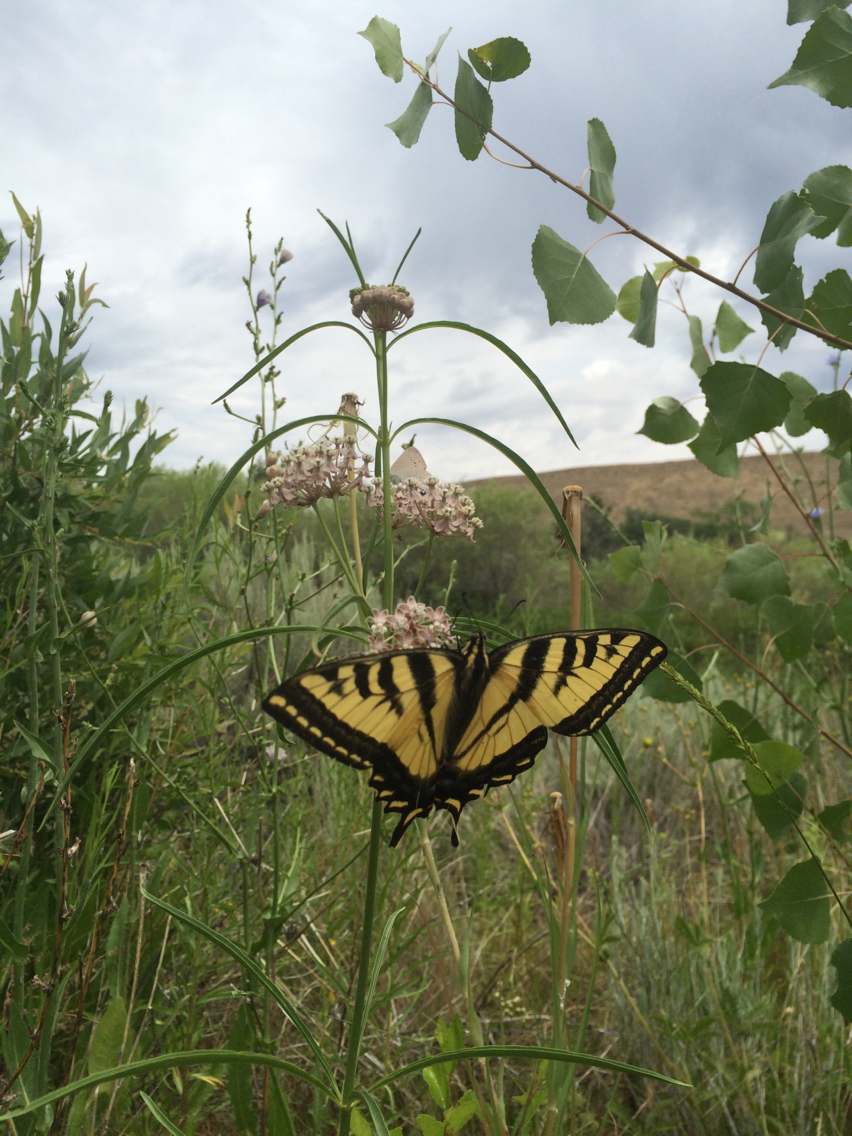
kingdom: Plantae
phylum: Tracheophyta
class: Magnoliopsida
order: Gentianales
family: Apocynaceae
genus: Asclepias
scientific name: Asclepias fascicularis
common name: Mexican milkweed
